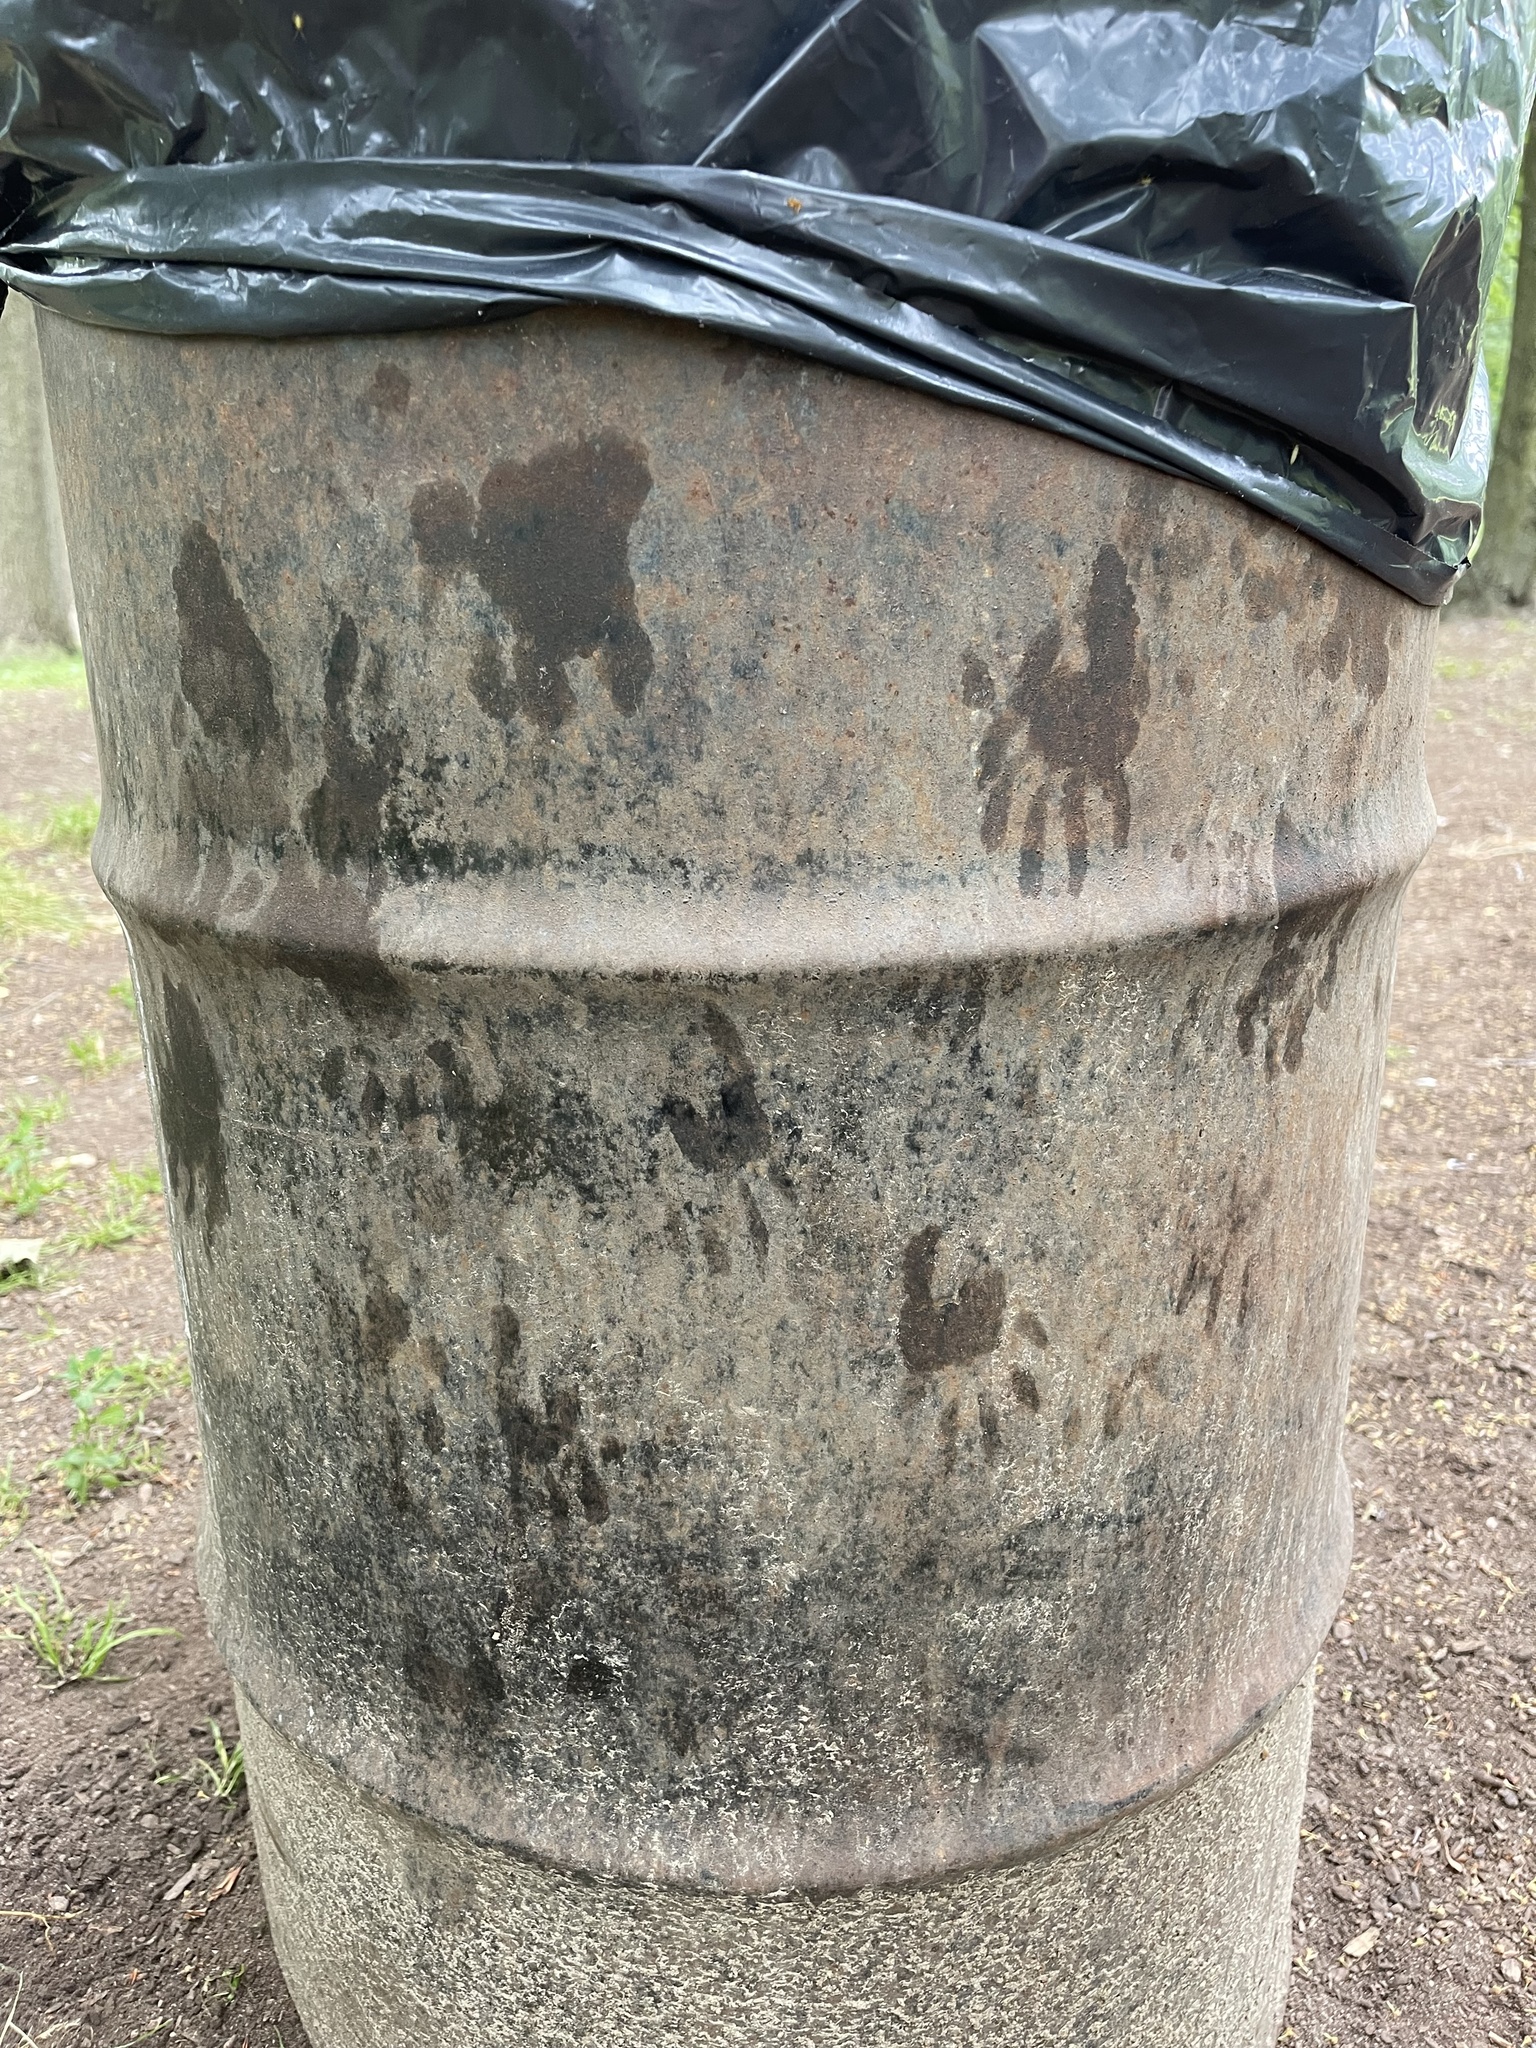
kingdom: Animalia
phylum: Chordata
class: Mammalia
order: Carnivora
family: Procyonidae
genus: Procyon
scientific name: Procyon lotor
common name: Raccoon
